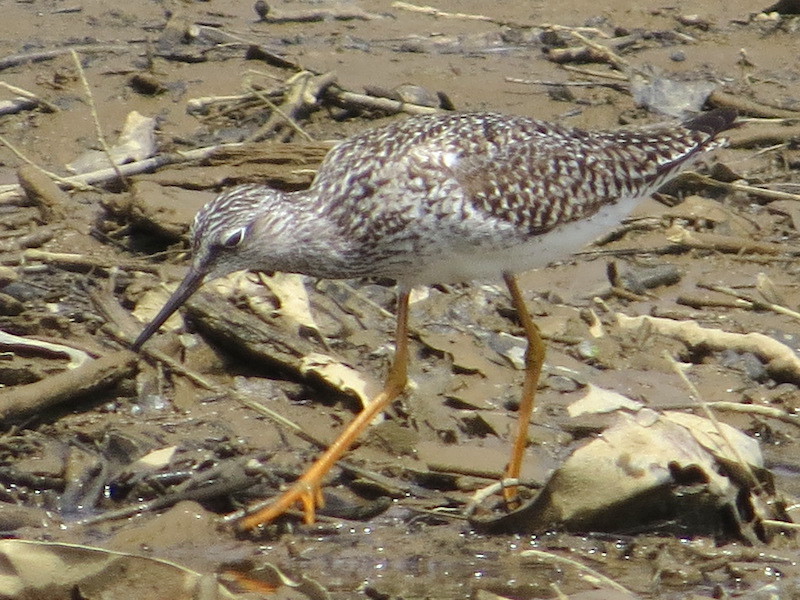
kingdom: Animalia
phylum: Chordata
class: Aves
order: Charadriiformes
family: Scolopacidae
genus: Tringa
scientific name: Tringa flavipes
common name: Lesser yellowlegs
